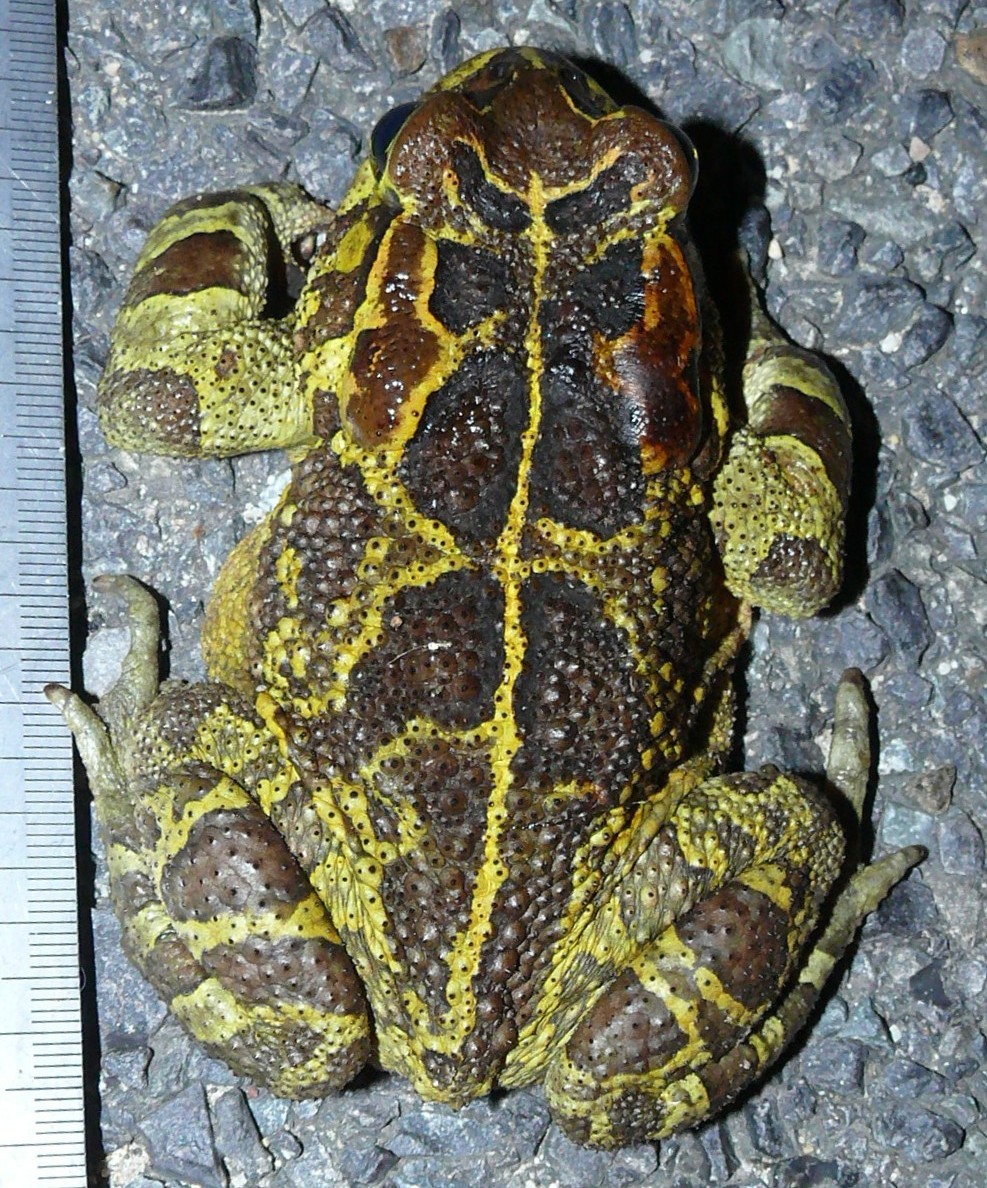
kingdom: Animalia
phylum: Chordata
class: Amphibia
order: Anura
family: Bufonidae
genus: Sclerophrys
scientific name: Sclerophrys pantherina
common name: Panther toad
